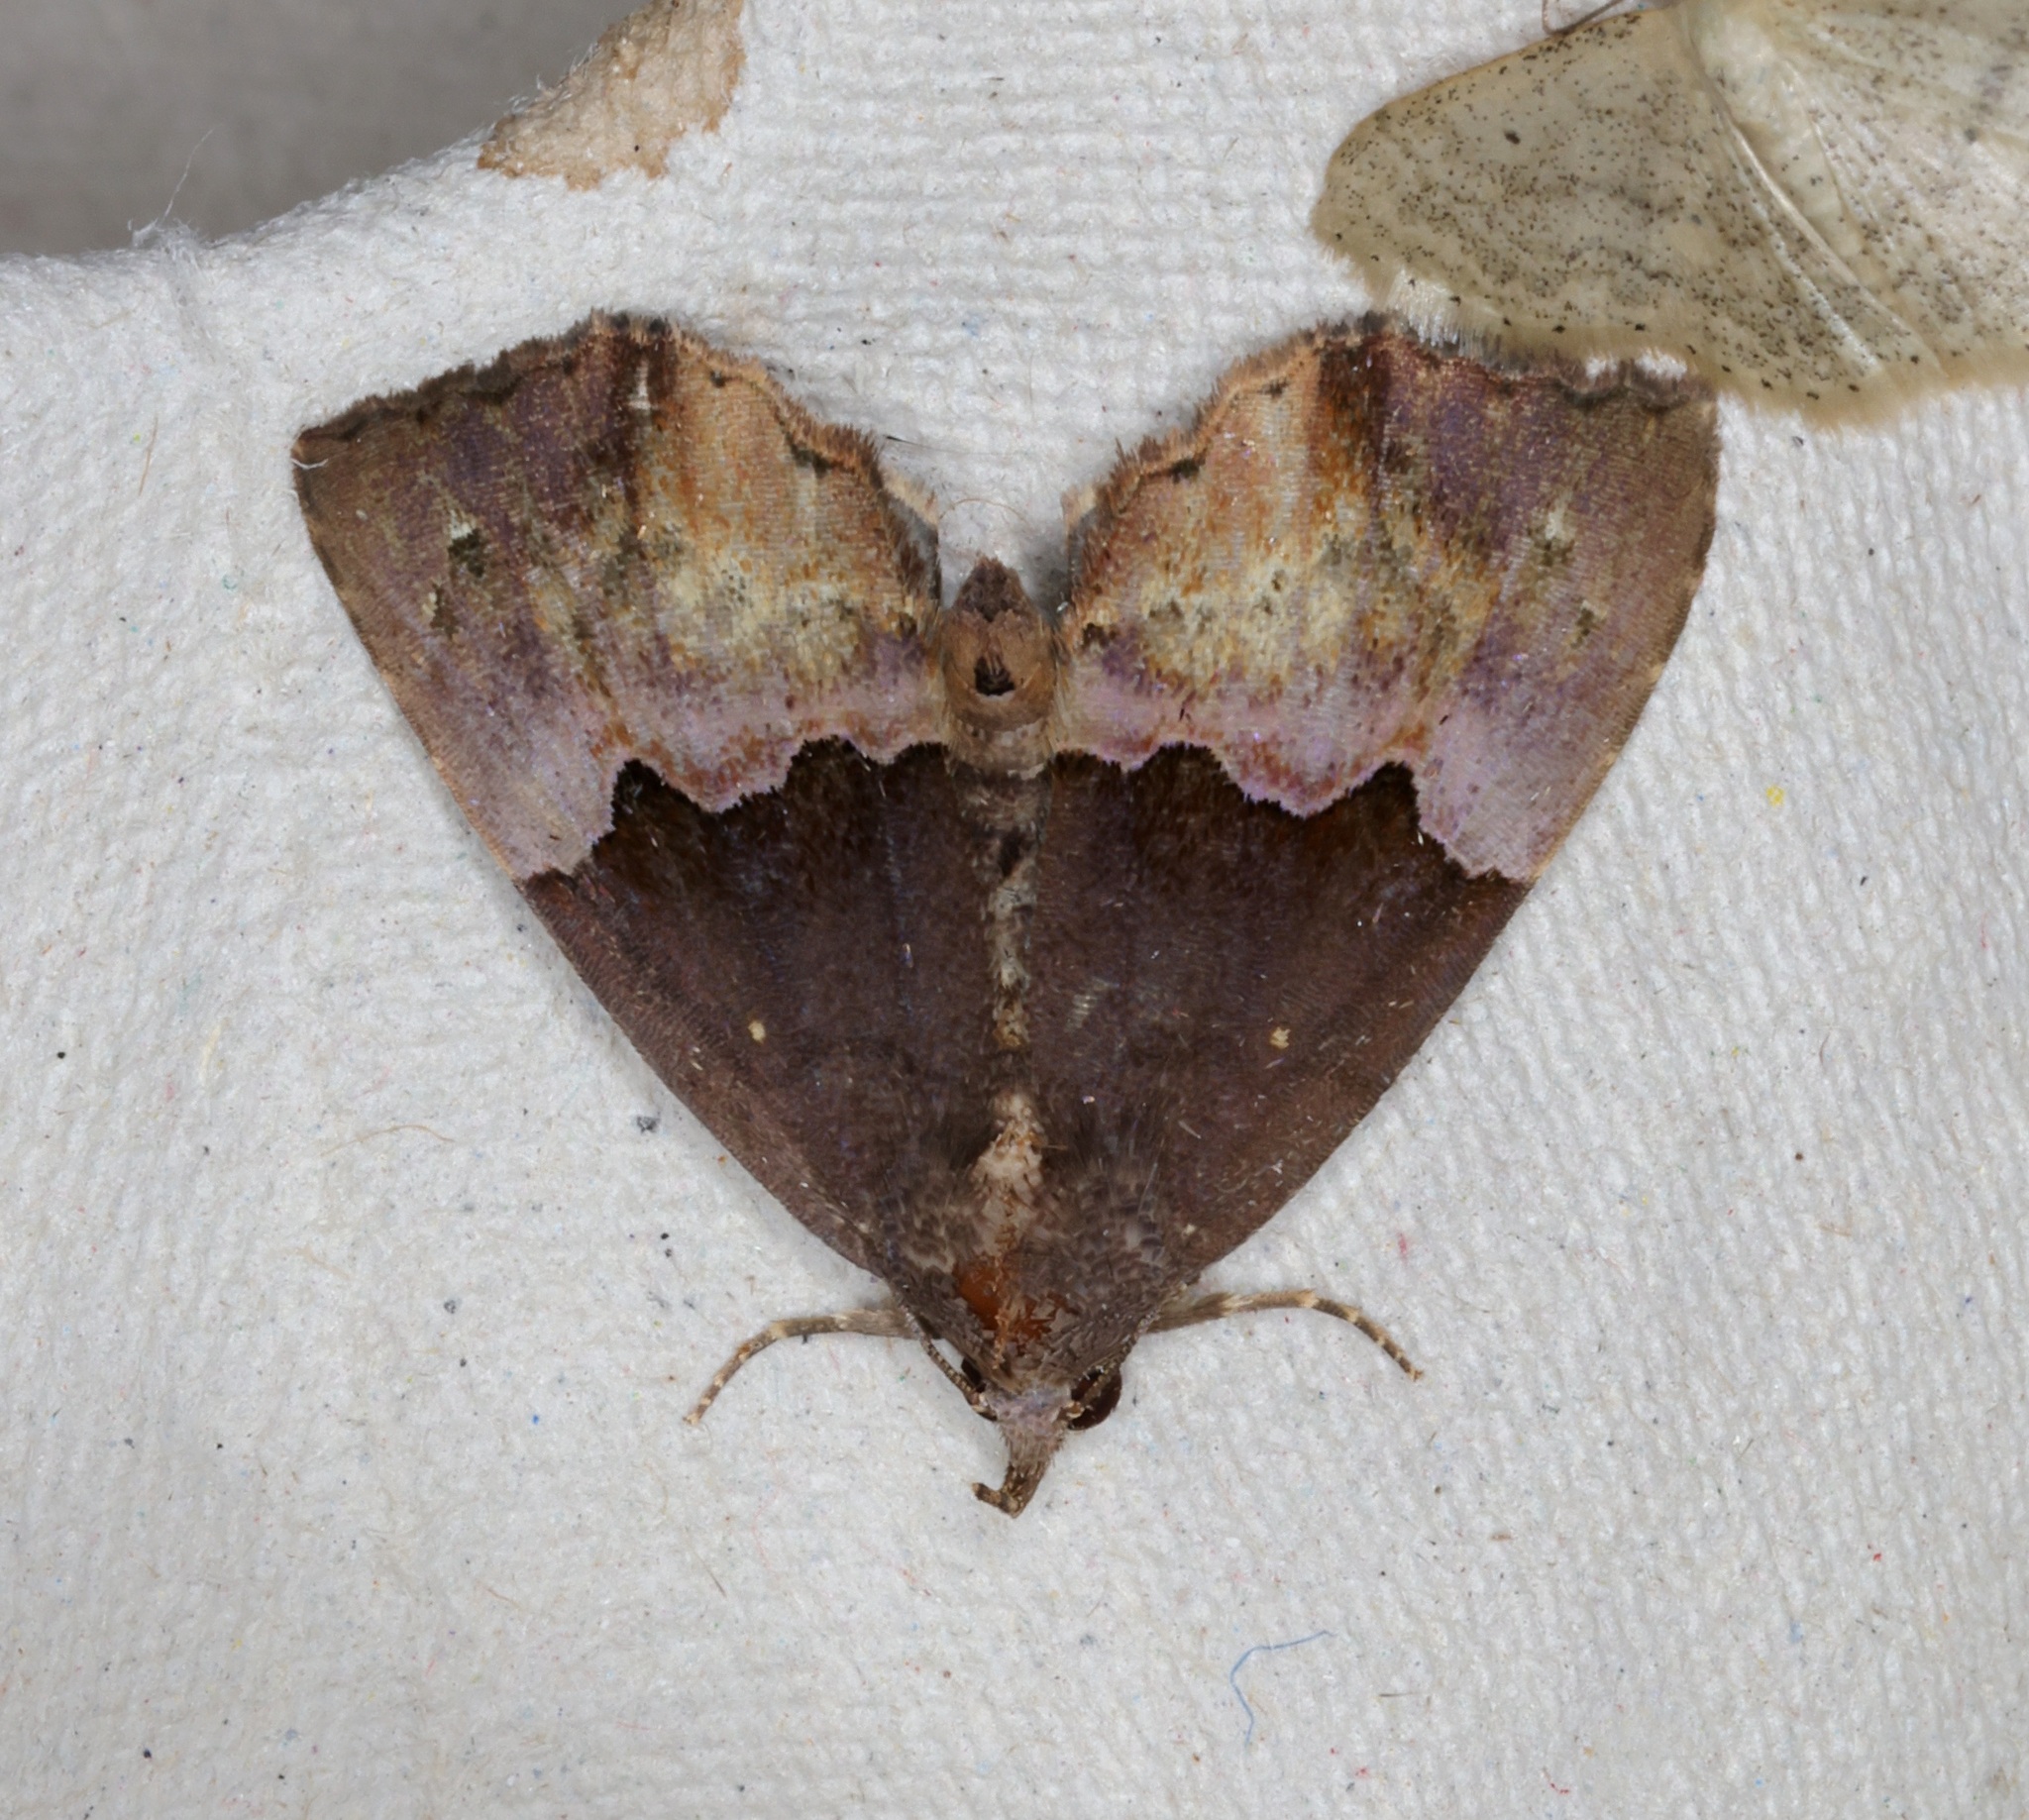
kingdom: Animalia
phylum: Arthropoda
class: Insecta
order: Lepidoptera
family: Noctuidae
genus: Ruttenstorferia
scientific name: Ruttenstorferia
